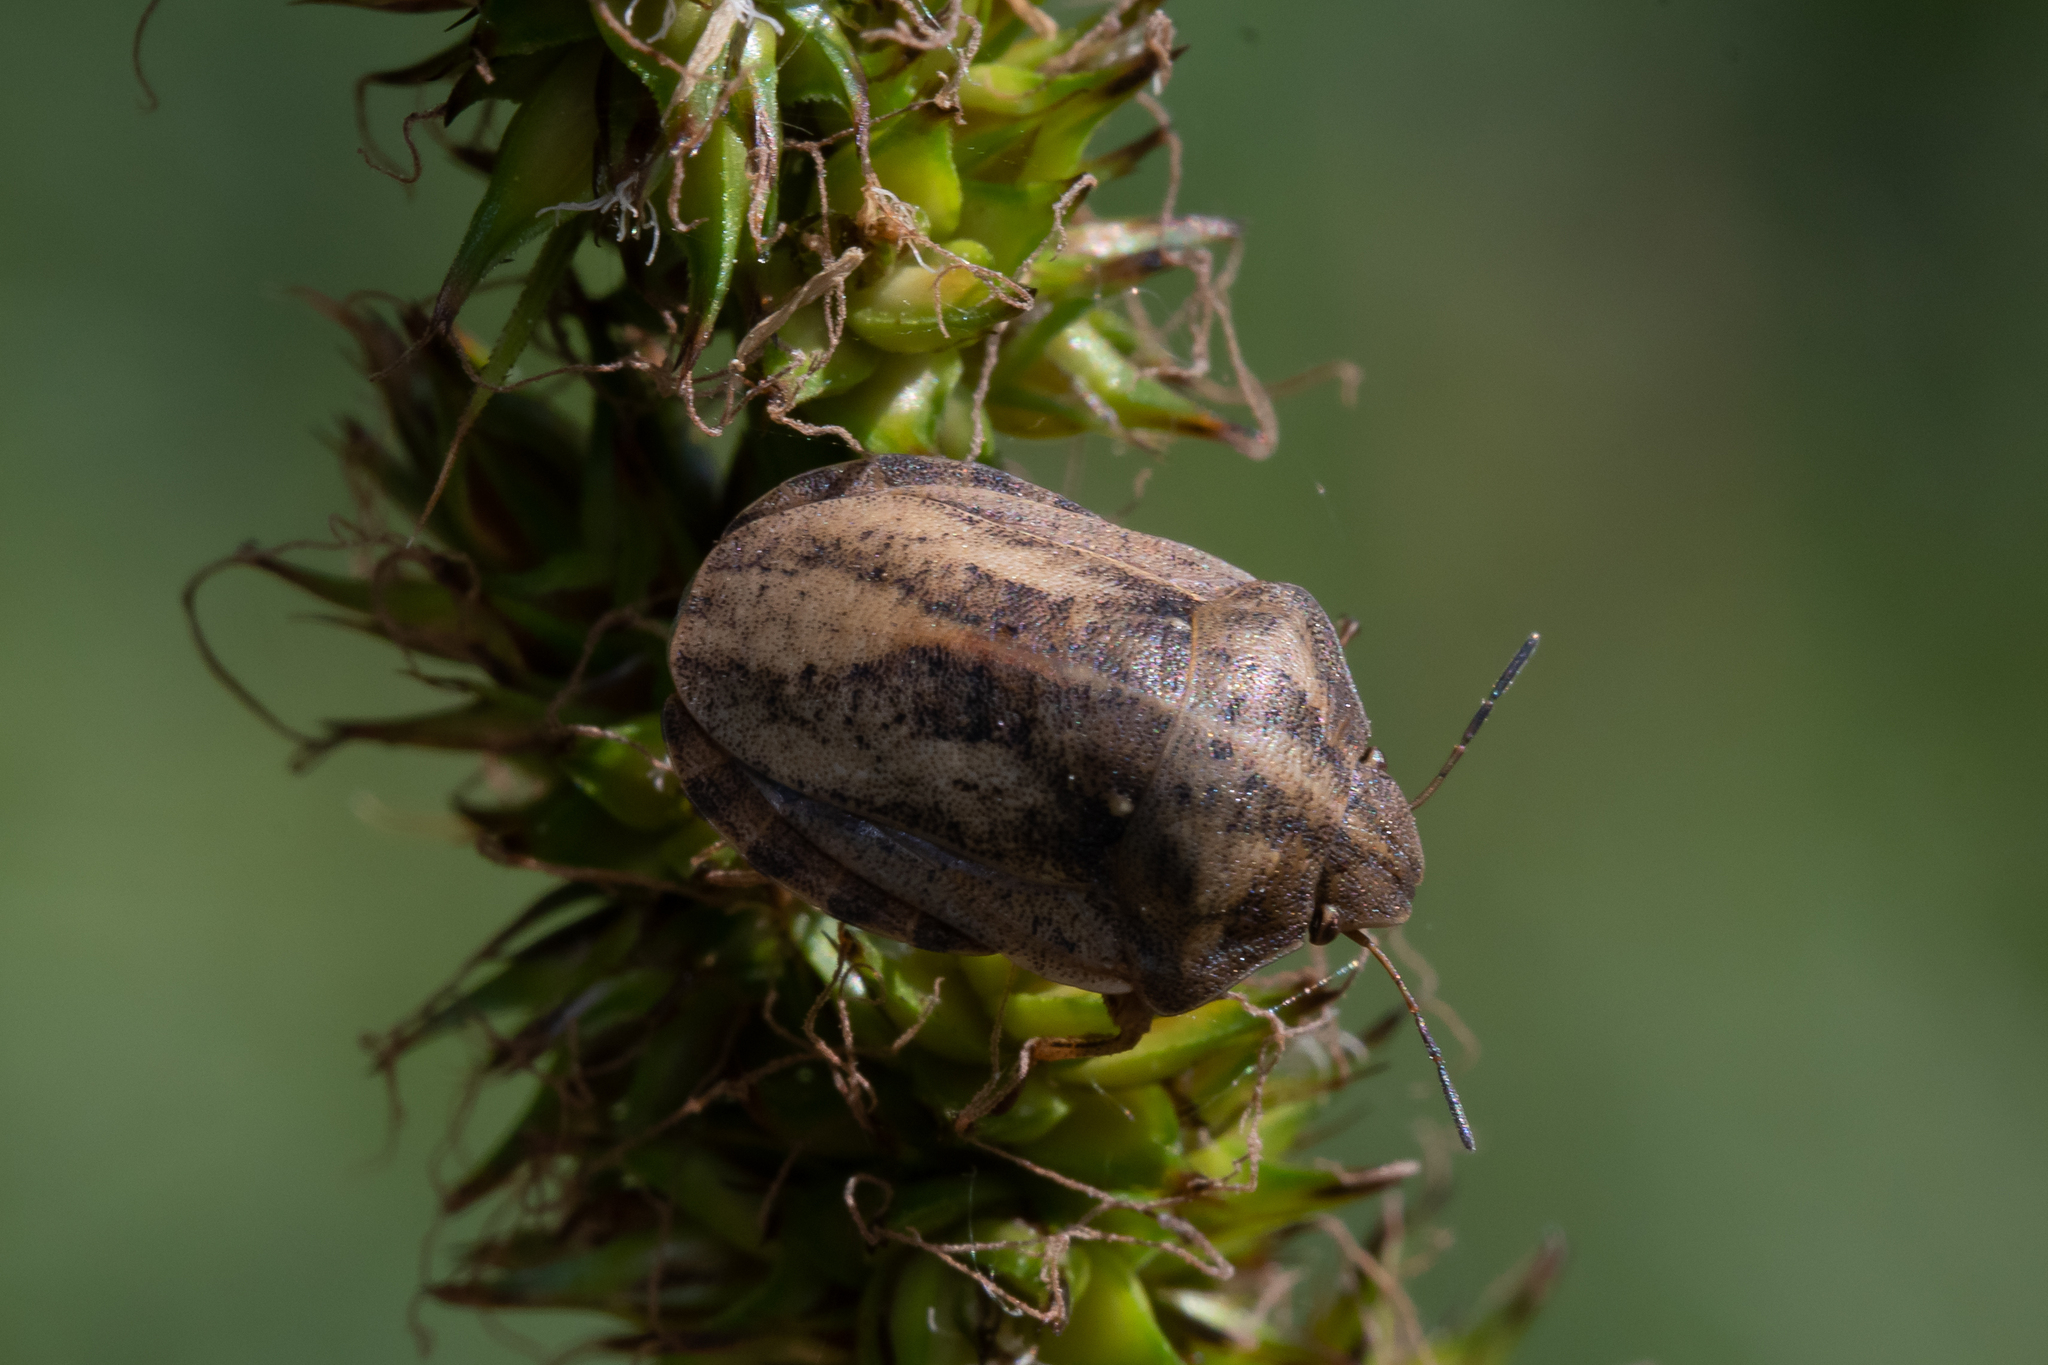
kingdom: Animalia
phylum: Arthropoda
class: Insecta
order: Hemiptera
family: Scutelleridae
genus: Eurygaster
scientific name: Eurygaster testudinaria
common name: Tortoise bug
